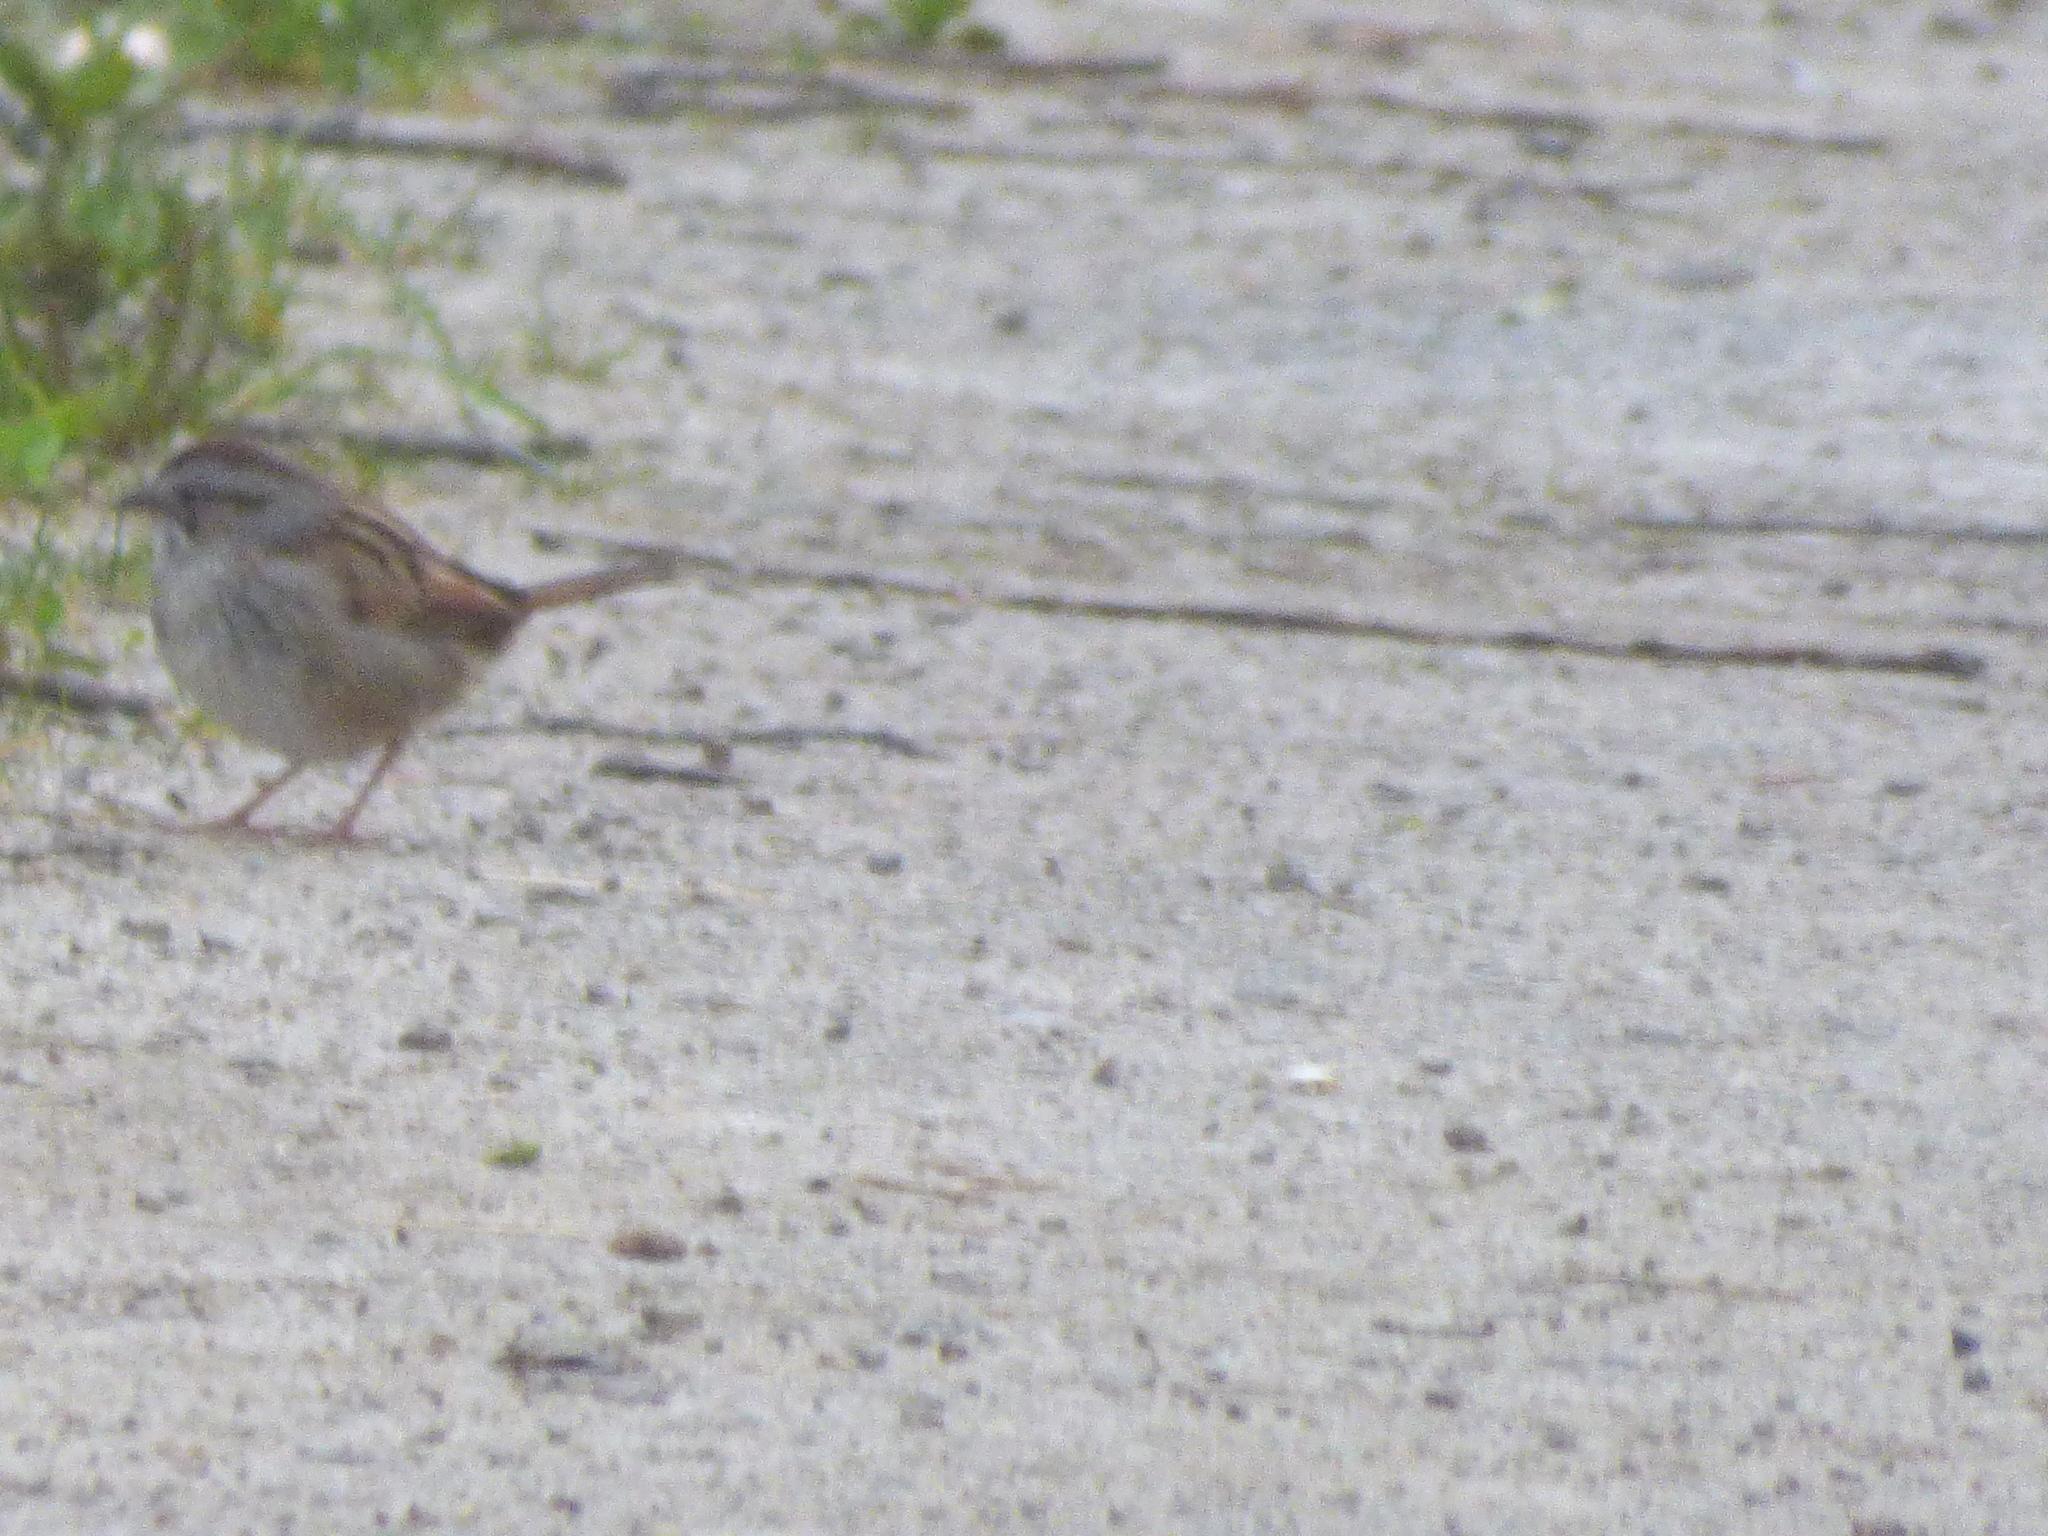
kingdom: Animalia
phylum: Chordata
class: Aves
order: Passeriformes
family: Passerellidae
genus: Melospiza
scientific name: Melospiza georgiana
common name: Swamp sparrow
